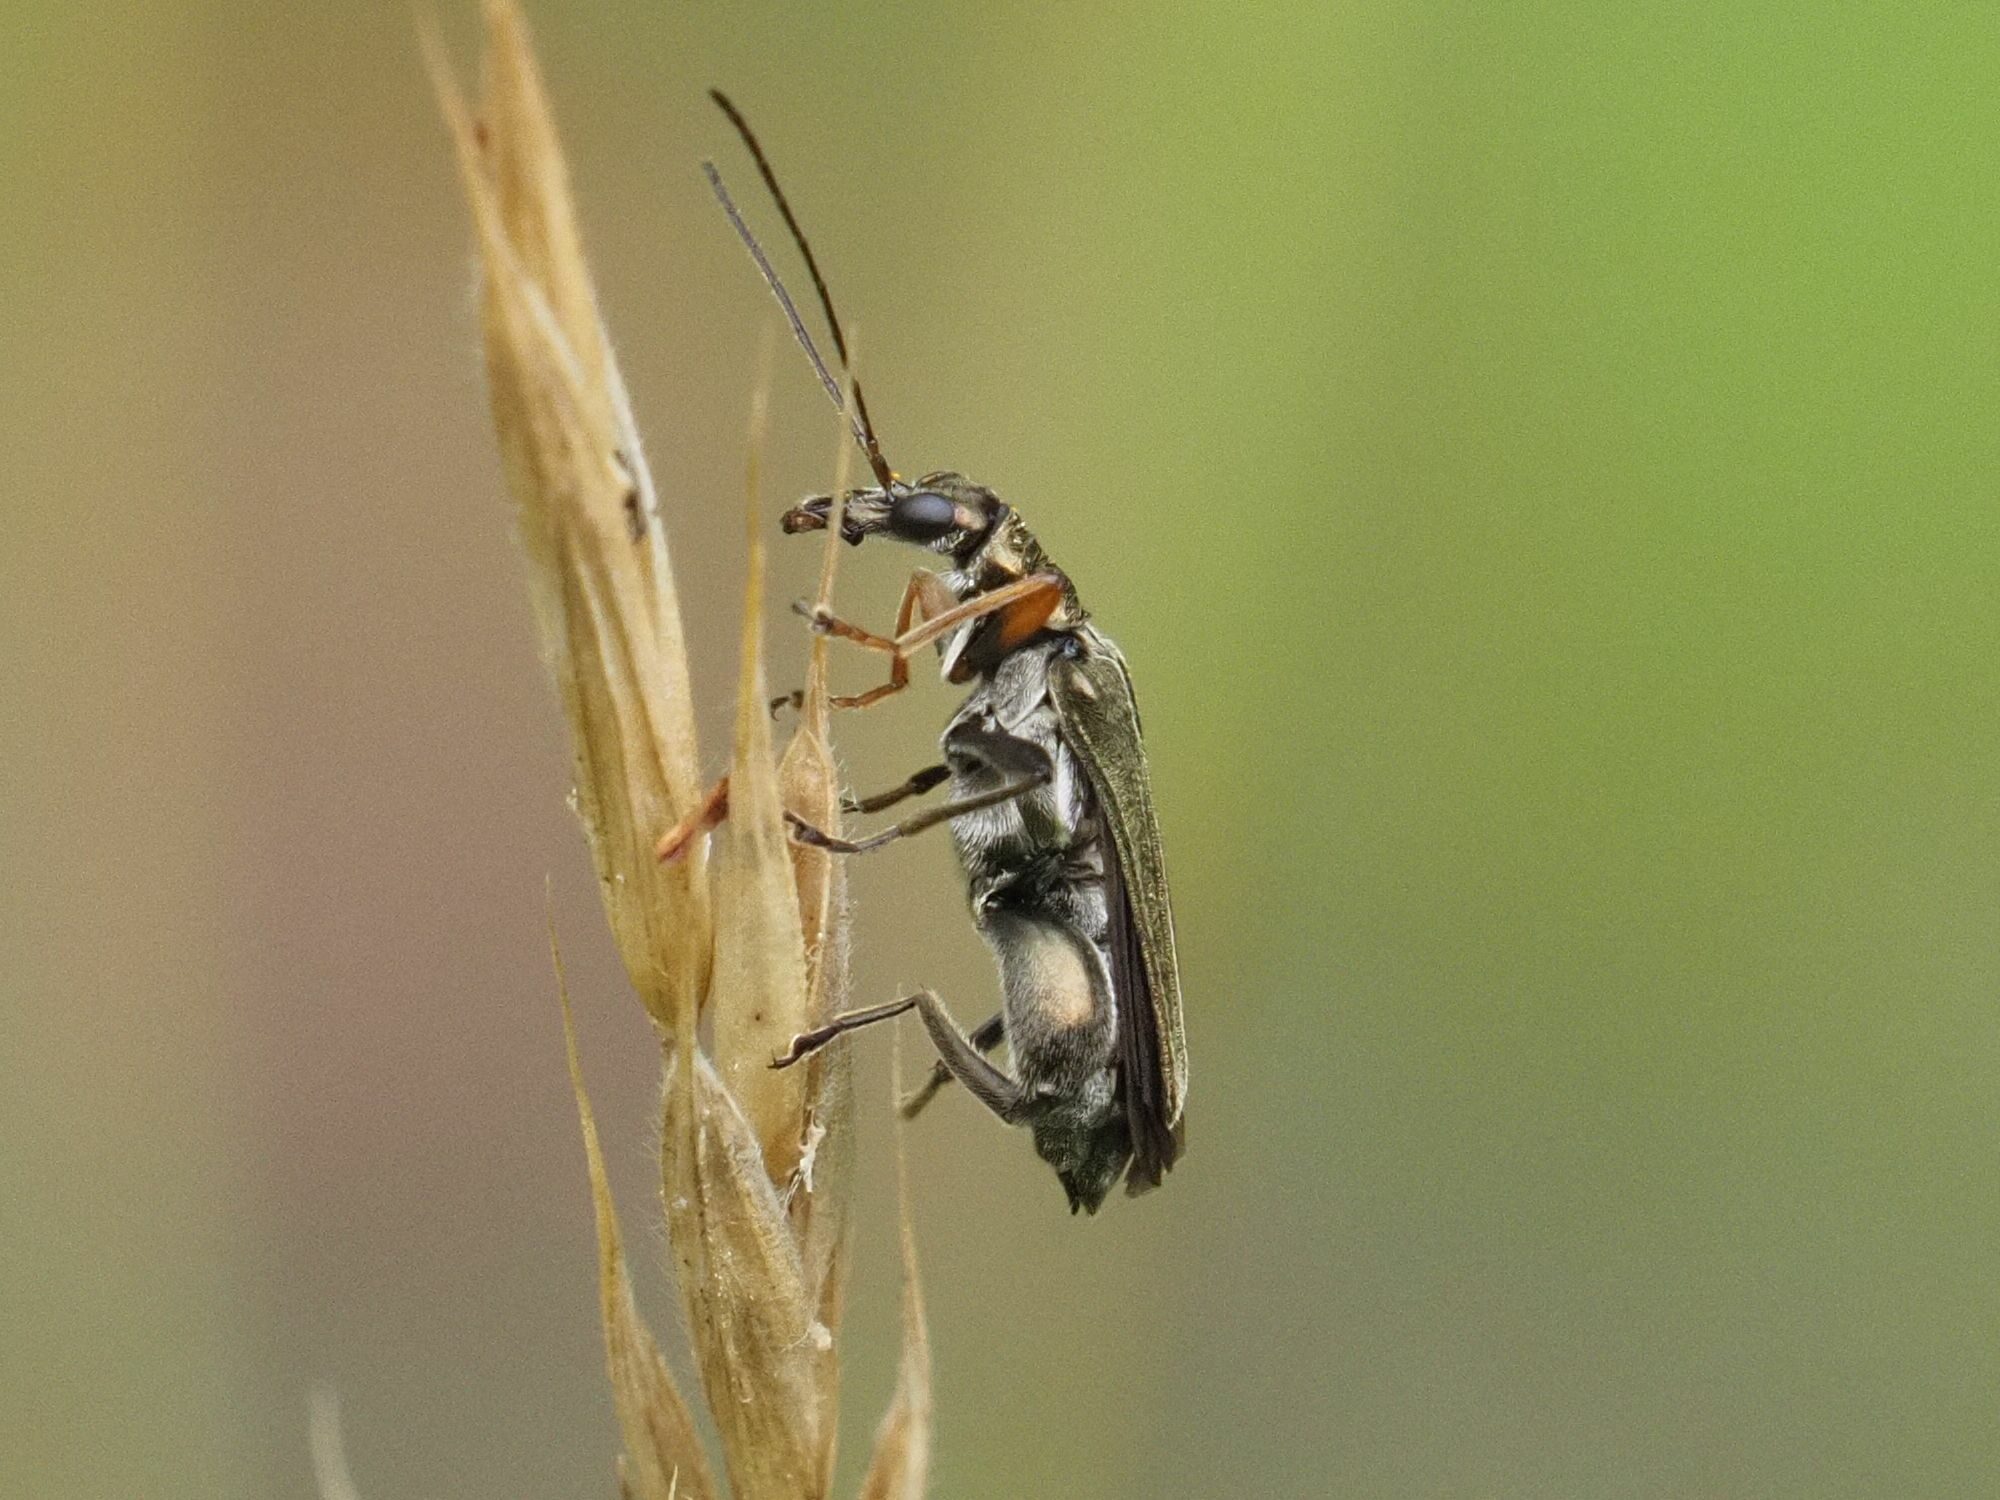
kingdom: Animalia
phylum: Arthropoda
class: Insecta
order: Coleoptera
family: Oedemeridae
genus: Oedemera
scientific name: Oedemera flavipes
